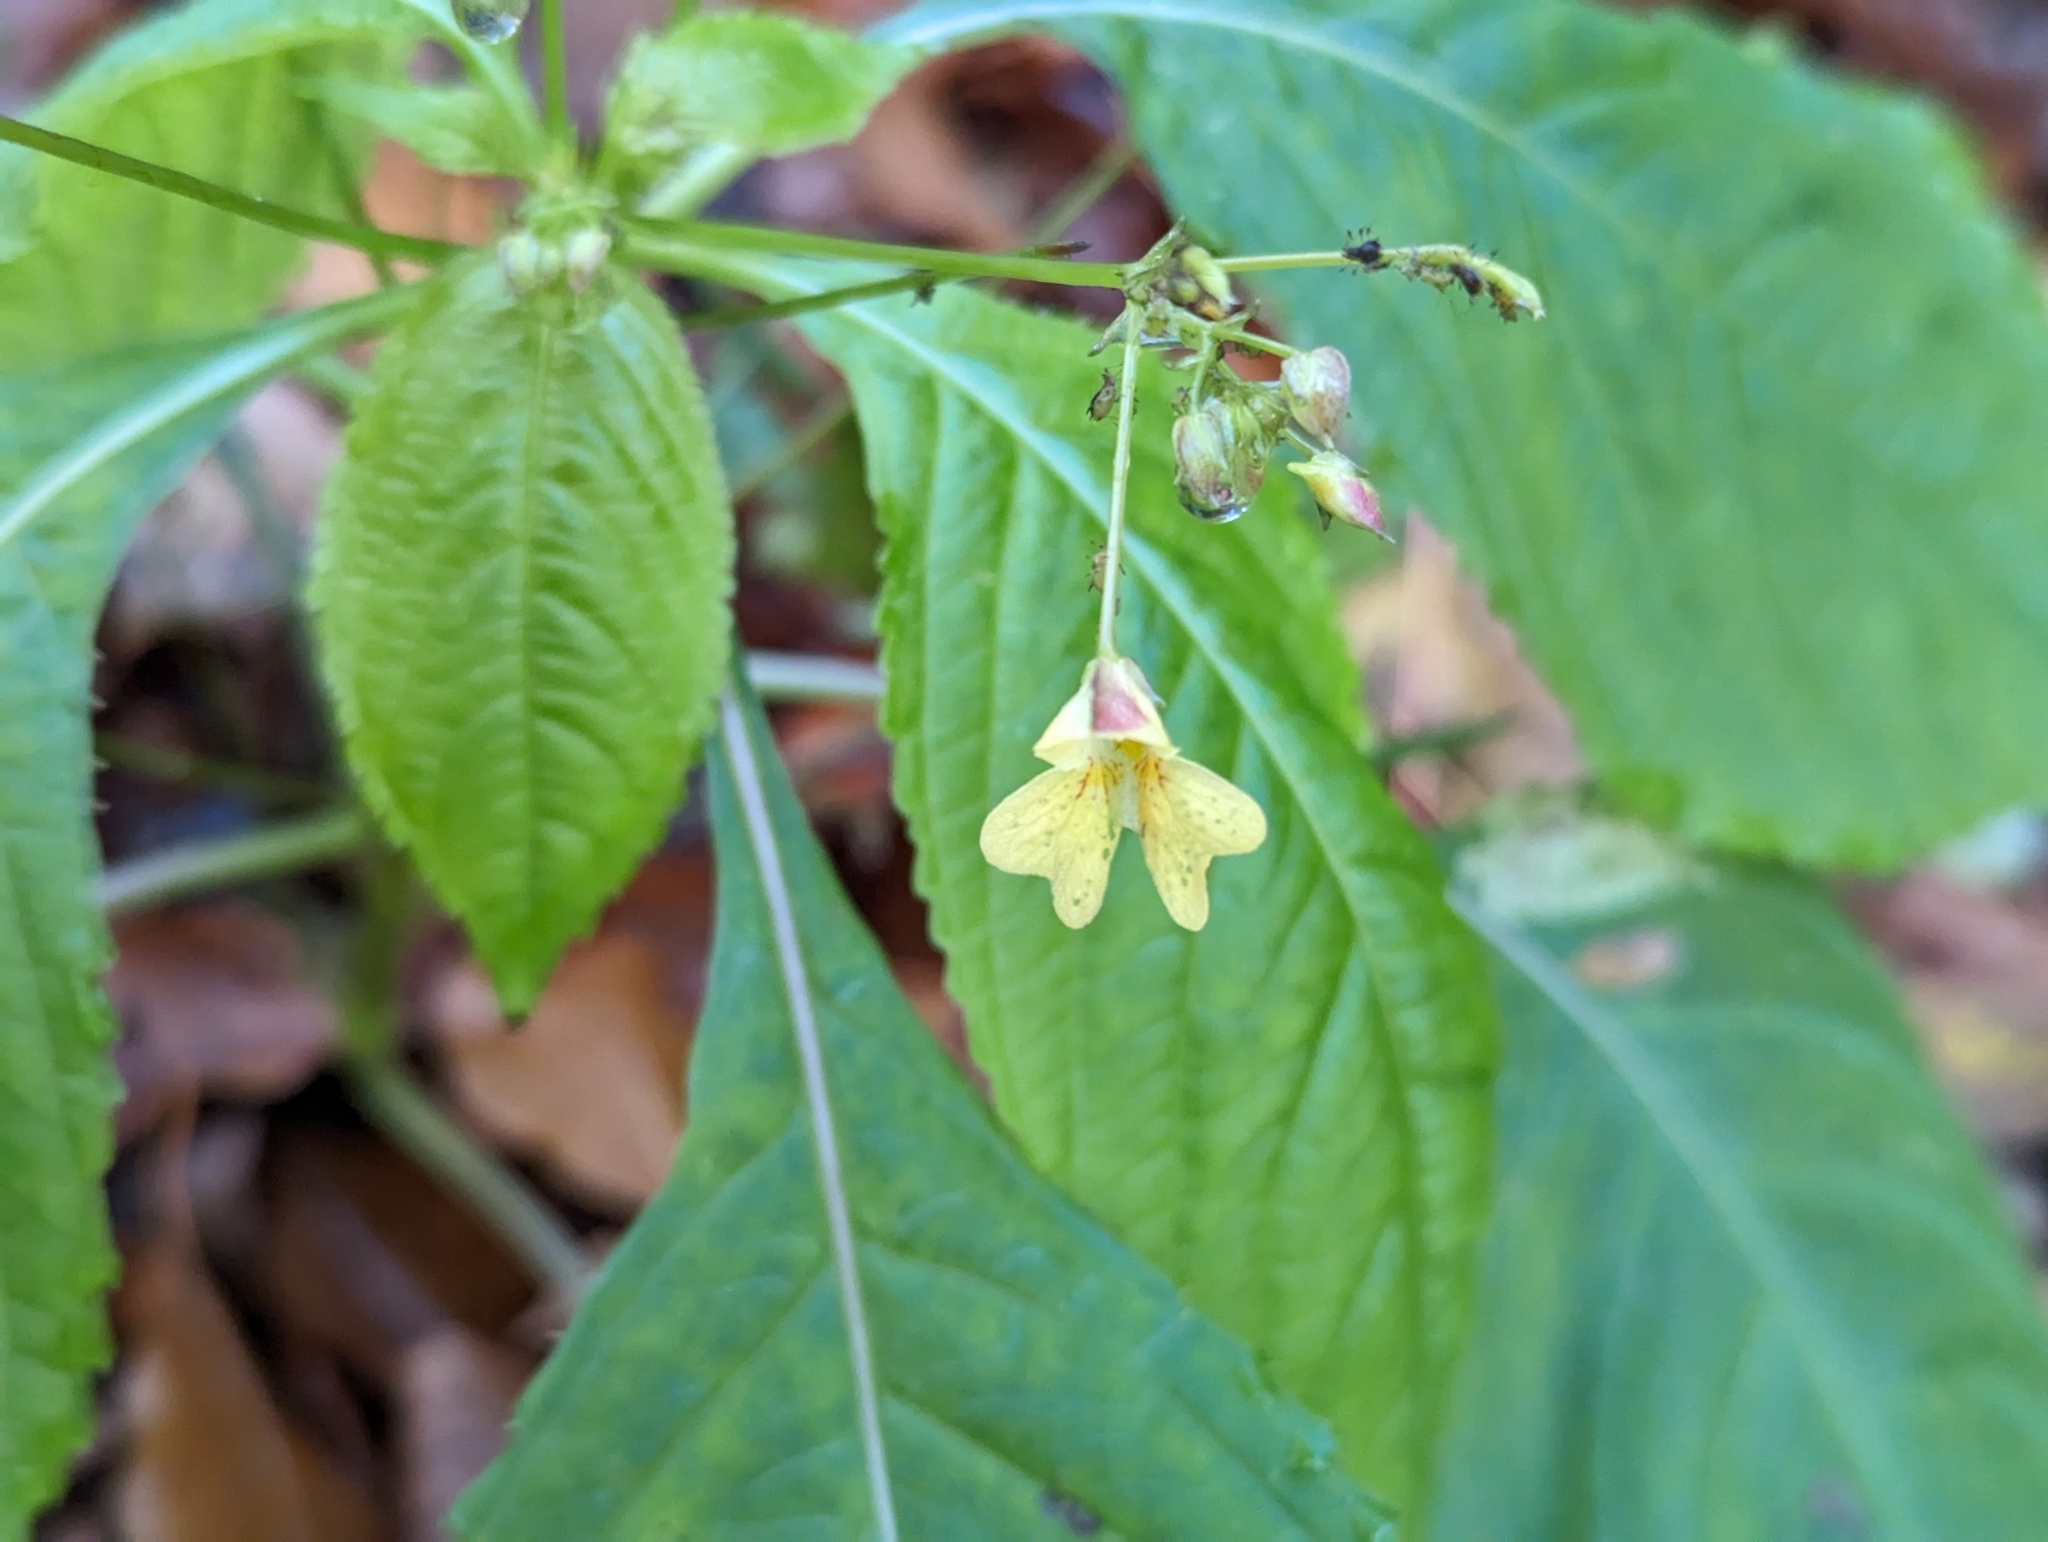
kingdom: Plantae
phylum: Tracheophyta
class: Magnoliopsida
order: Ericales
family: Balsaminaceae
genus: Impatiens
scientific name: Impatiens parviflora
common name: Small balsam
